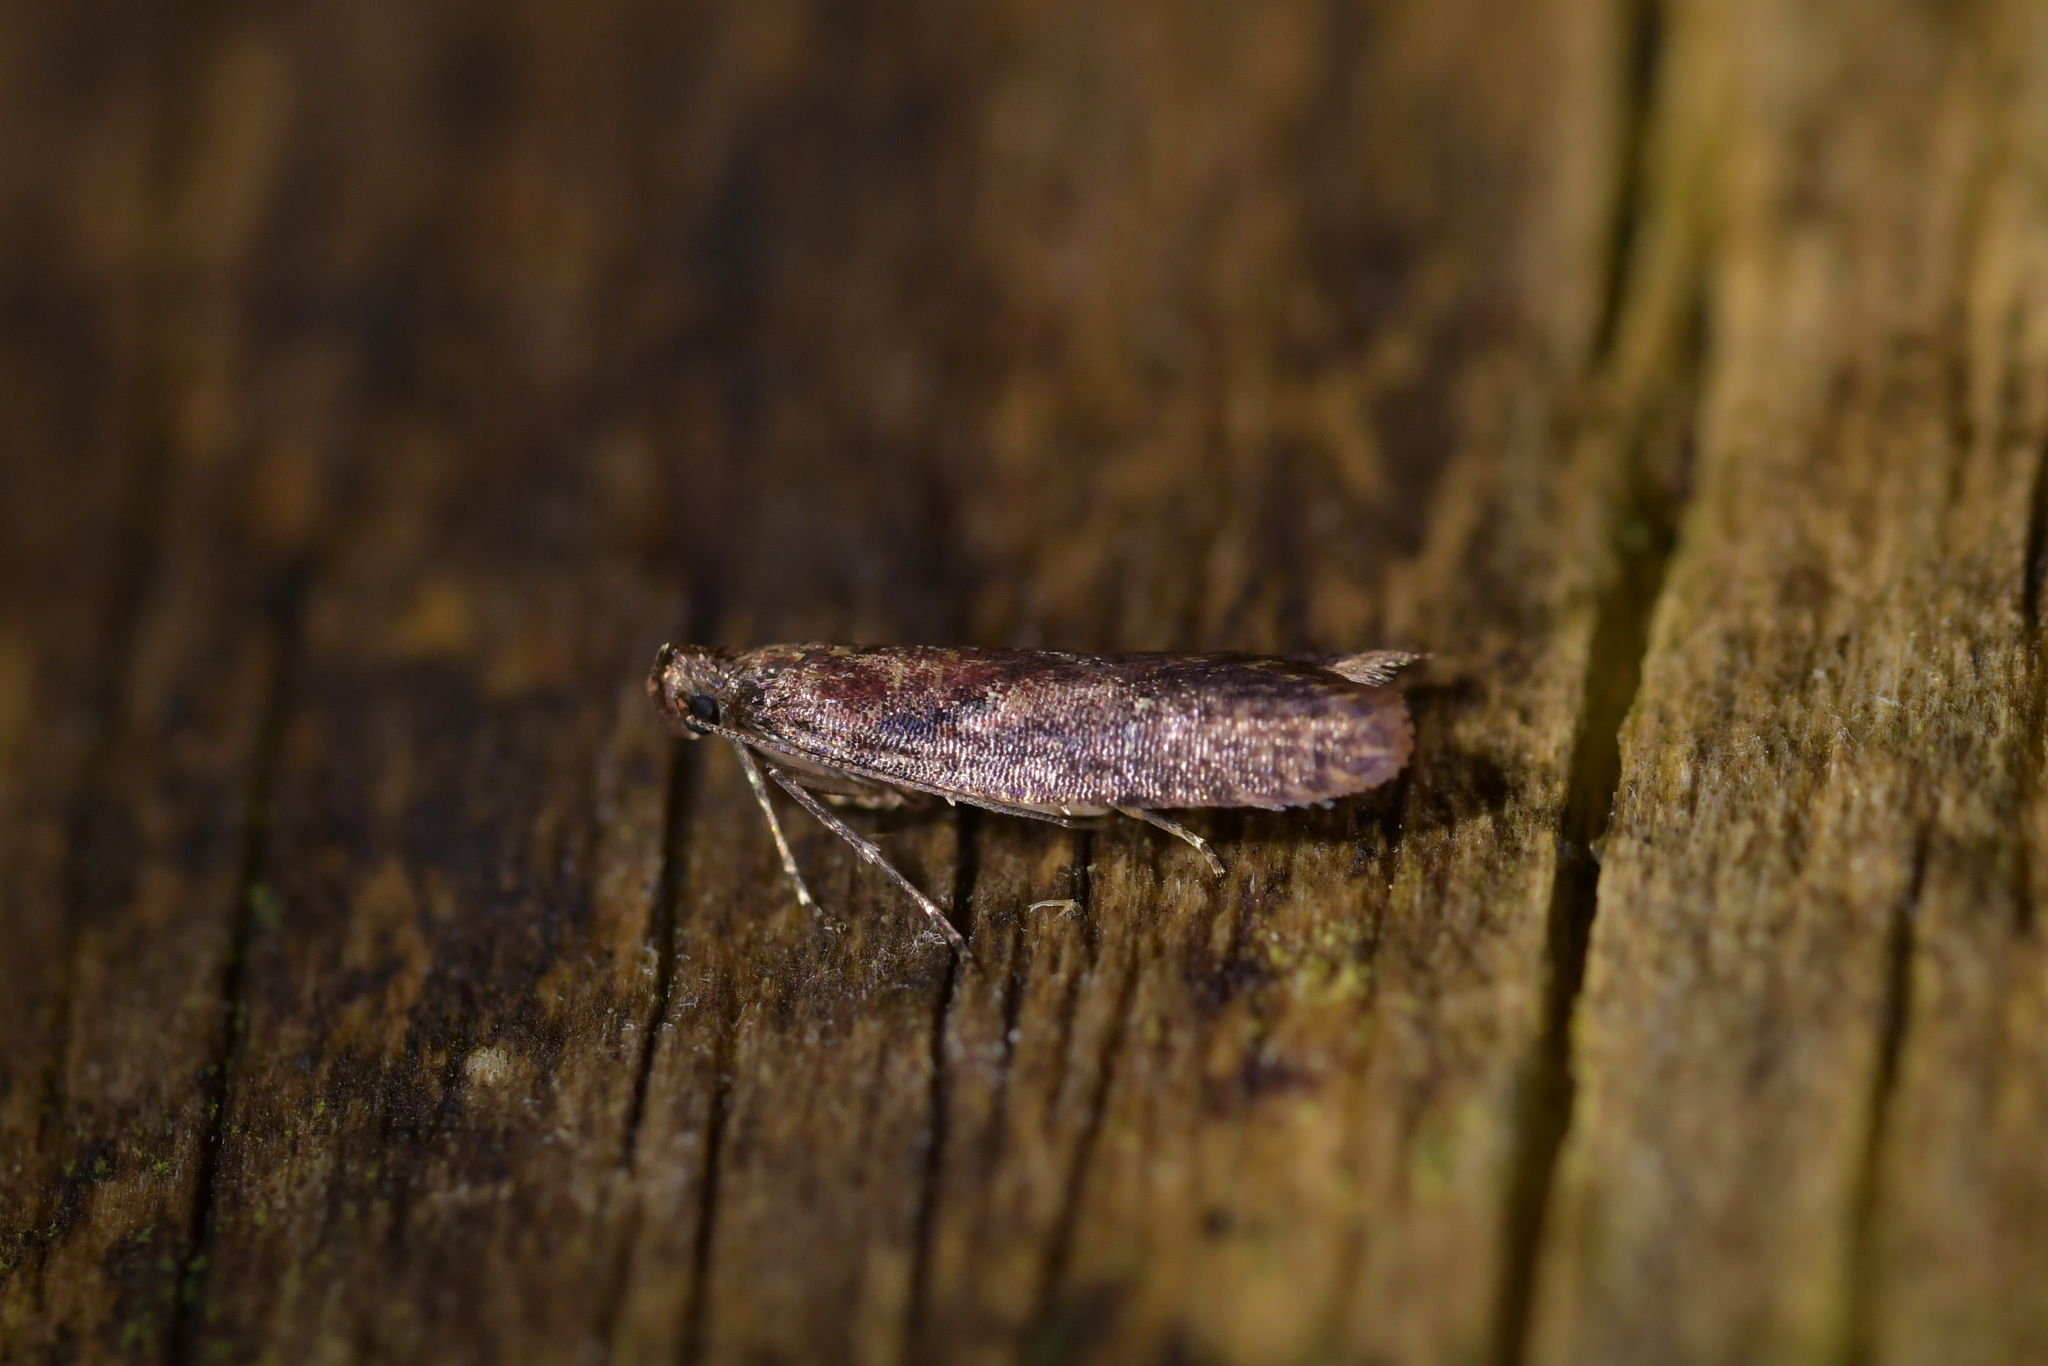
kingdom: Animalia
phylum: Arthropoda
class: Insecta
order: Lepidoptera
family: Plutellidae
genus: Cadmogenes
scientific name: Cadmogenes literata
